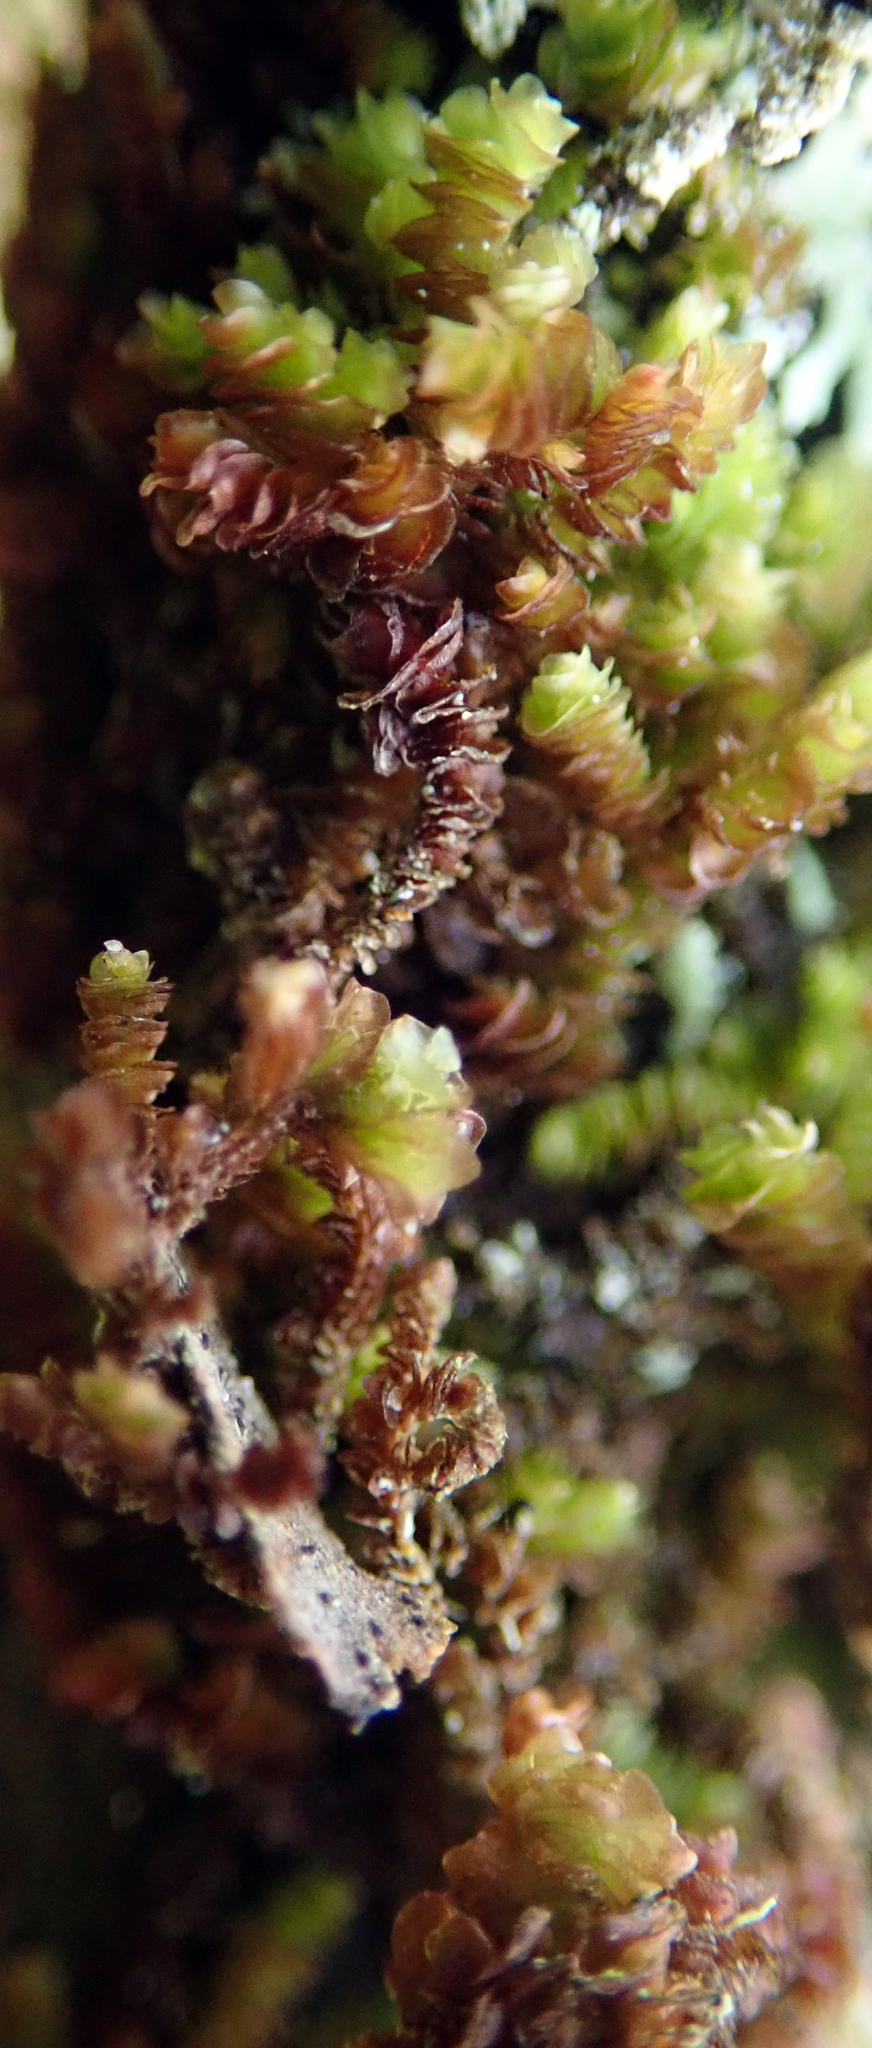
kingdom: Plantae
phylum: Marchantiophyta
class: Jungermanniopsida
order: Porellales
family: Frullaniaceae
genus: Frullania
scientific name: Frullania squarrosula
